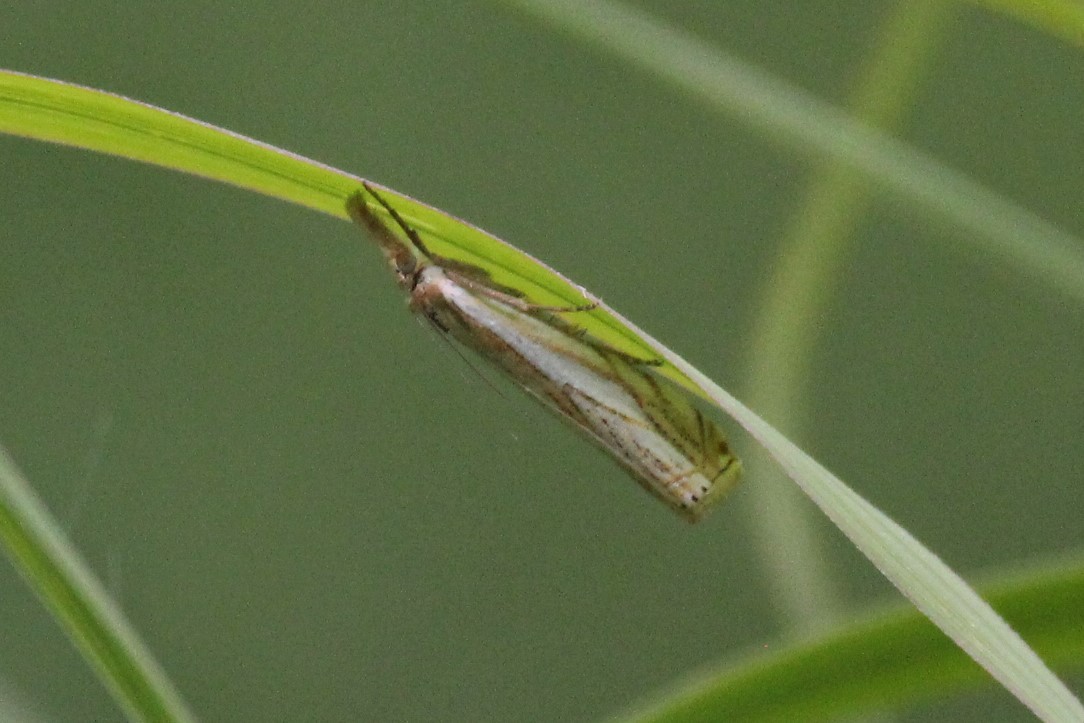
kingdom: Animalia
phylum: Arthropoda
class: Insecta
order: Lepidoptera
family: Crambidae
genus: Crambus
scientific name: Crambus saltuellus
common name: Pasture grass-veneer
